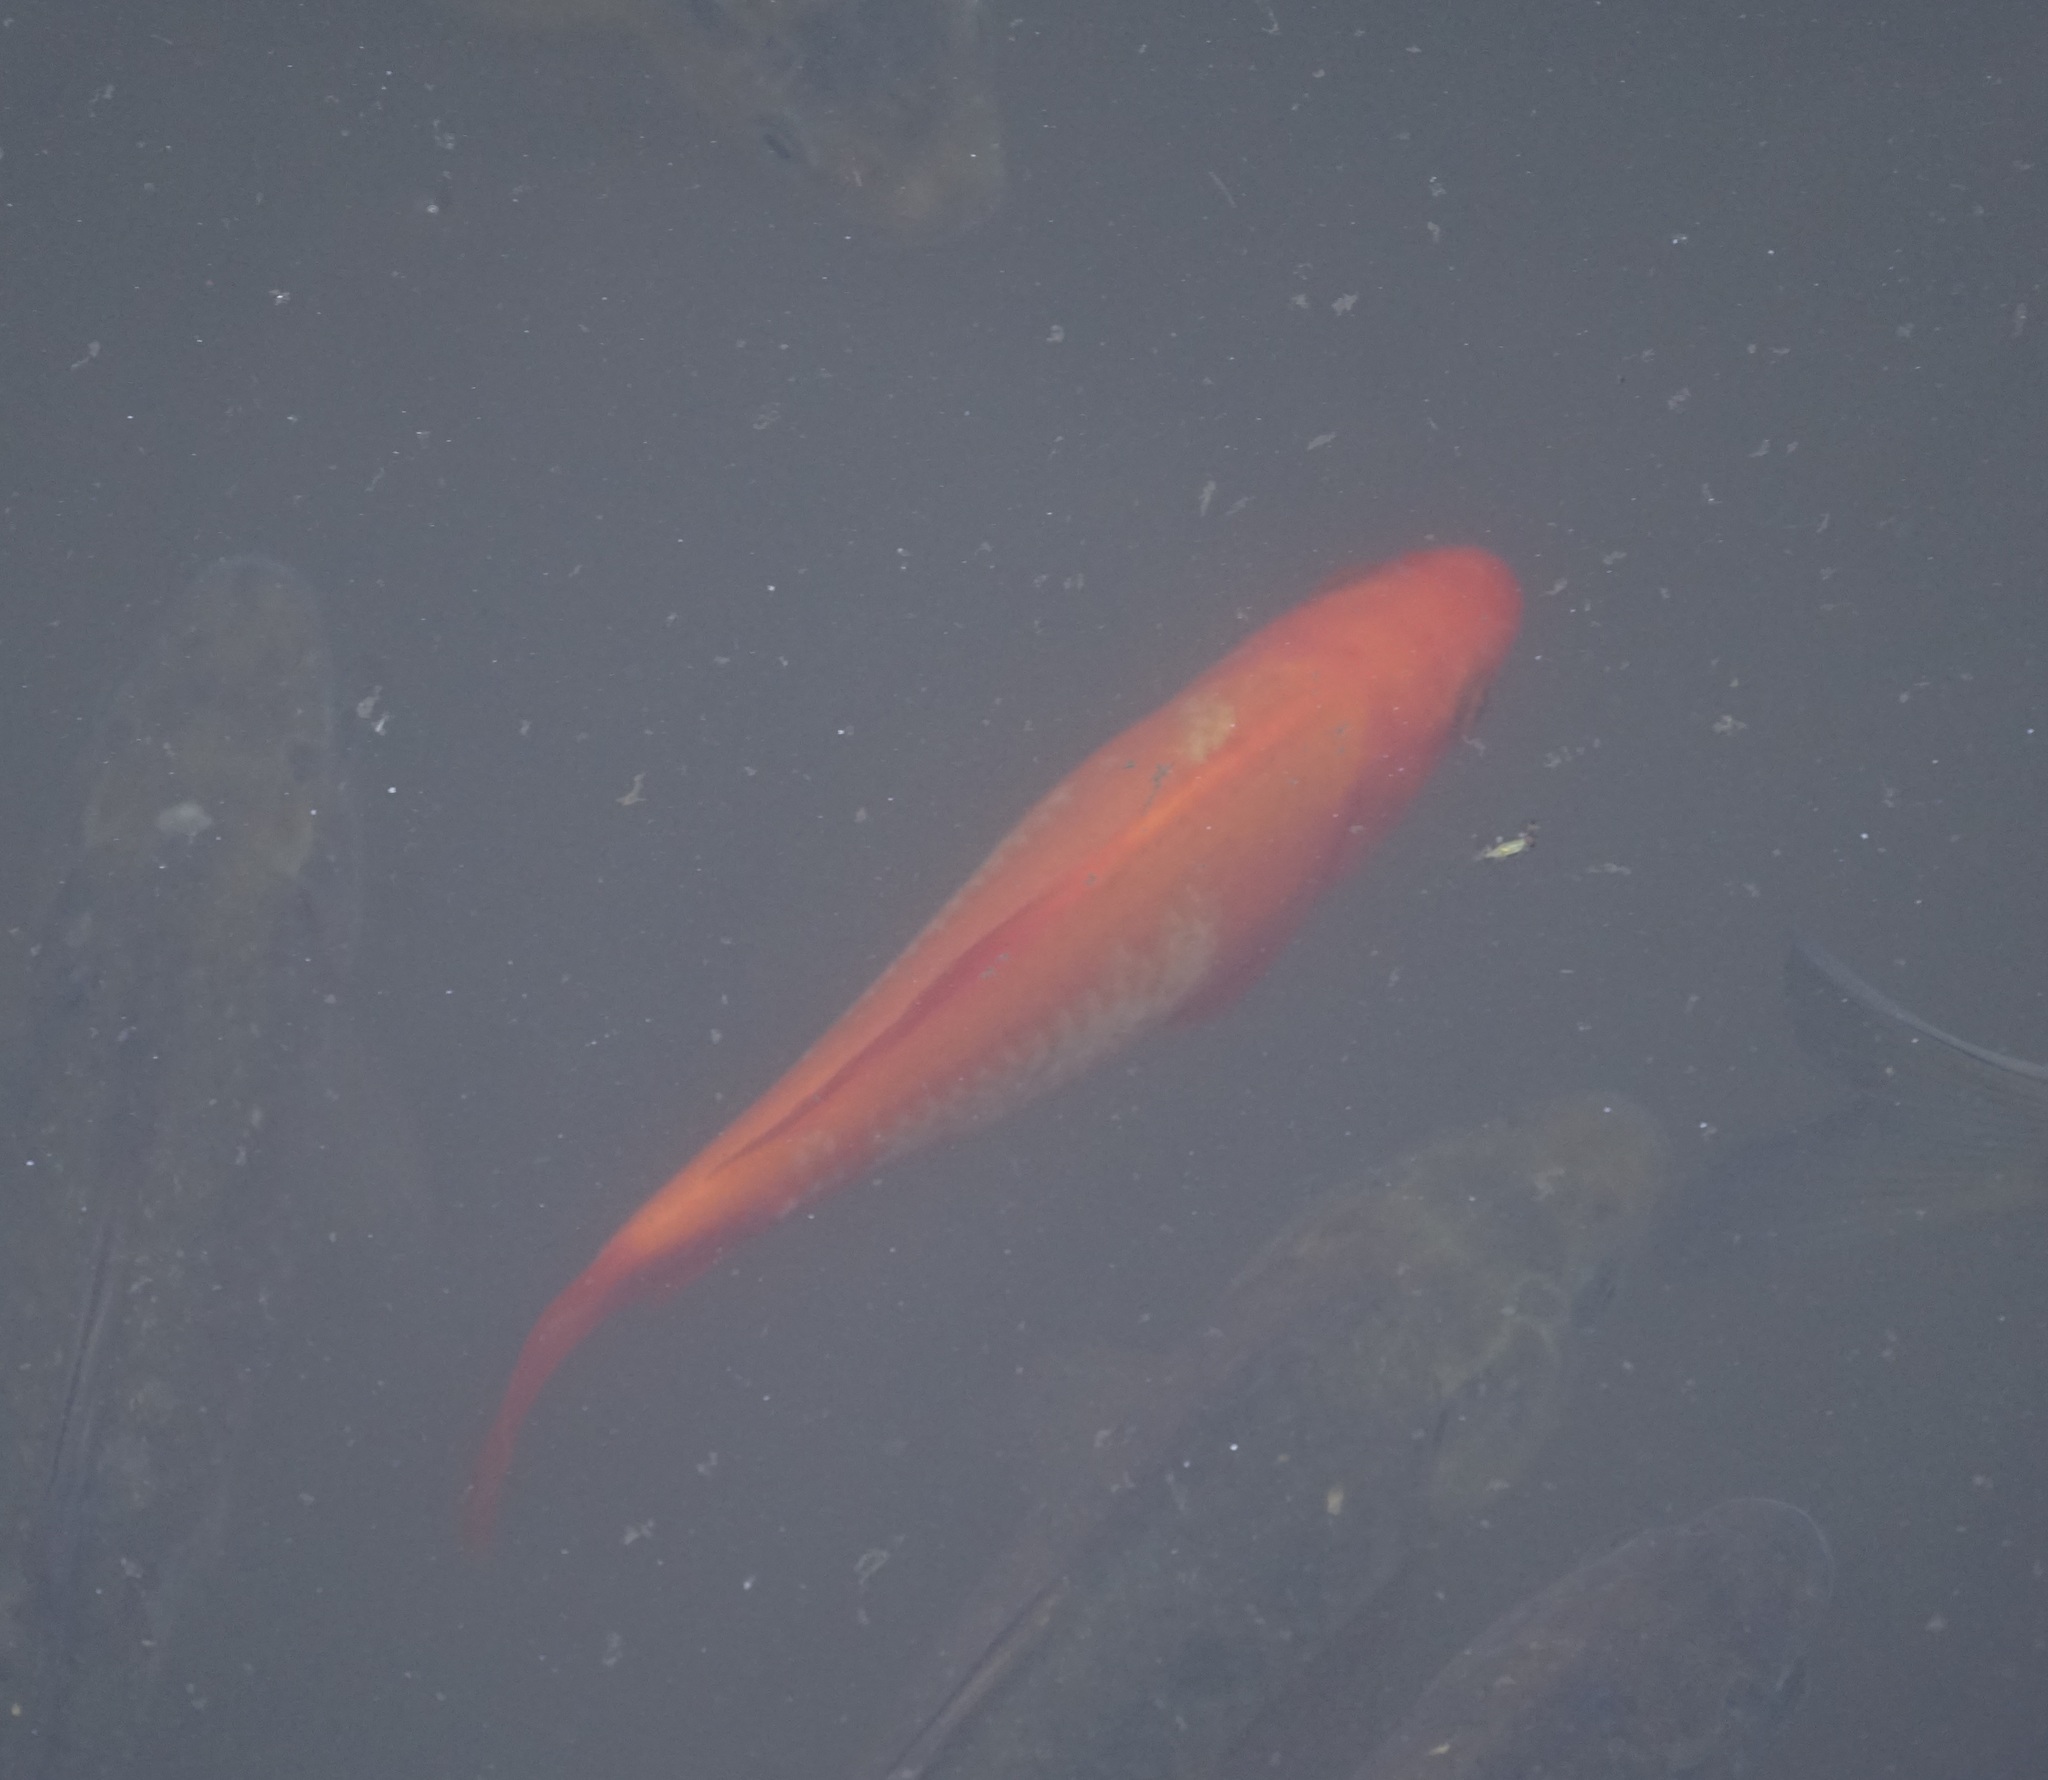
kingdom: Animalia
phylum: Chordata
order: Cypriniformes
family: Cyprinidae
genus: Carassius
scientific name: Carassius auratus
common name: Goldfish
